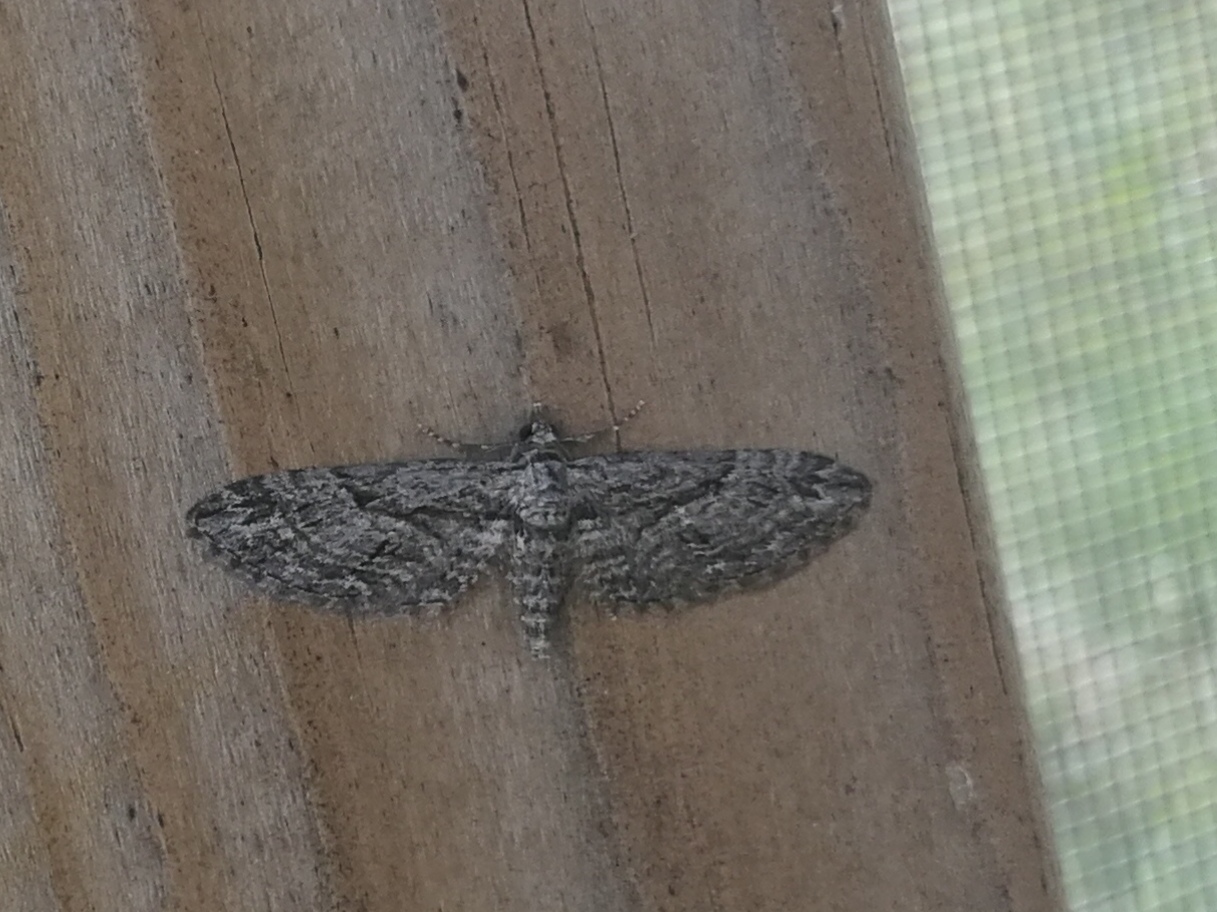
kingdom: Animalia
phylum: Arthropoda
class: Insecta
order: Lepidoptera
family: Geometridae
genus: Eupithecia
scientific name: Eupithecia oxycedrata
